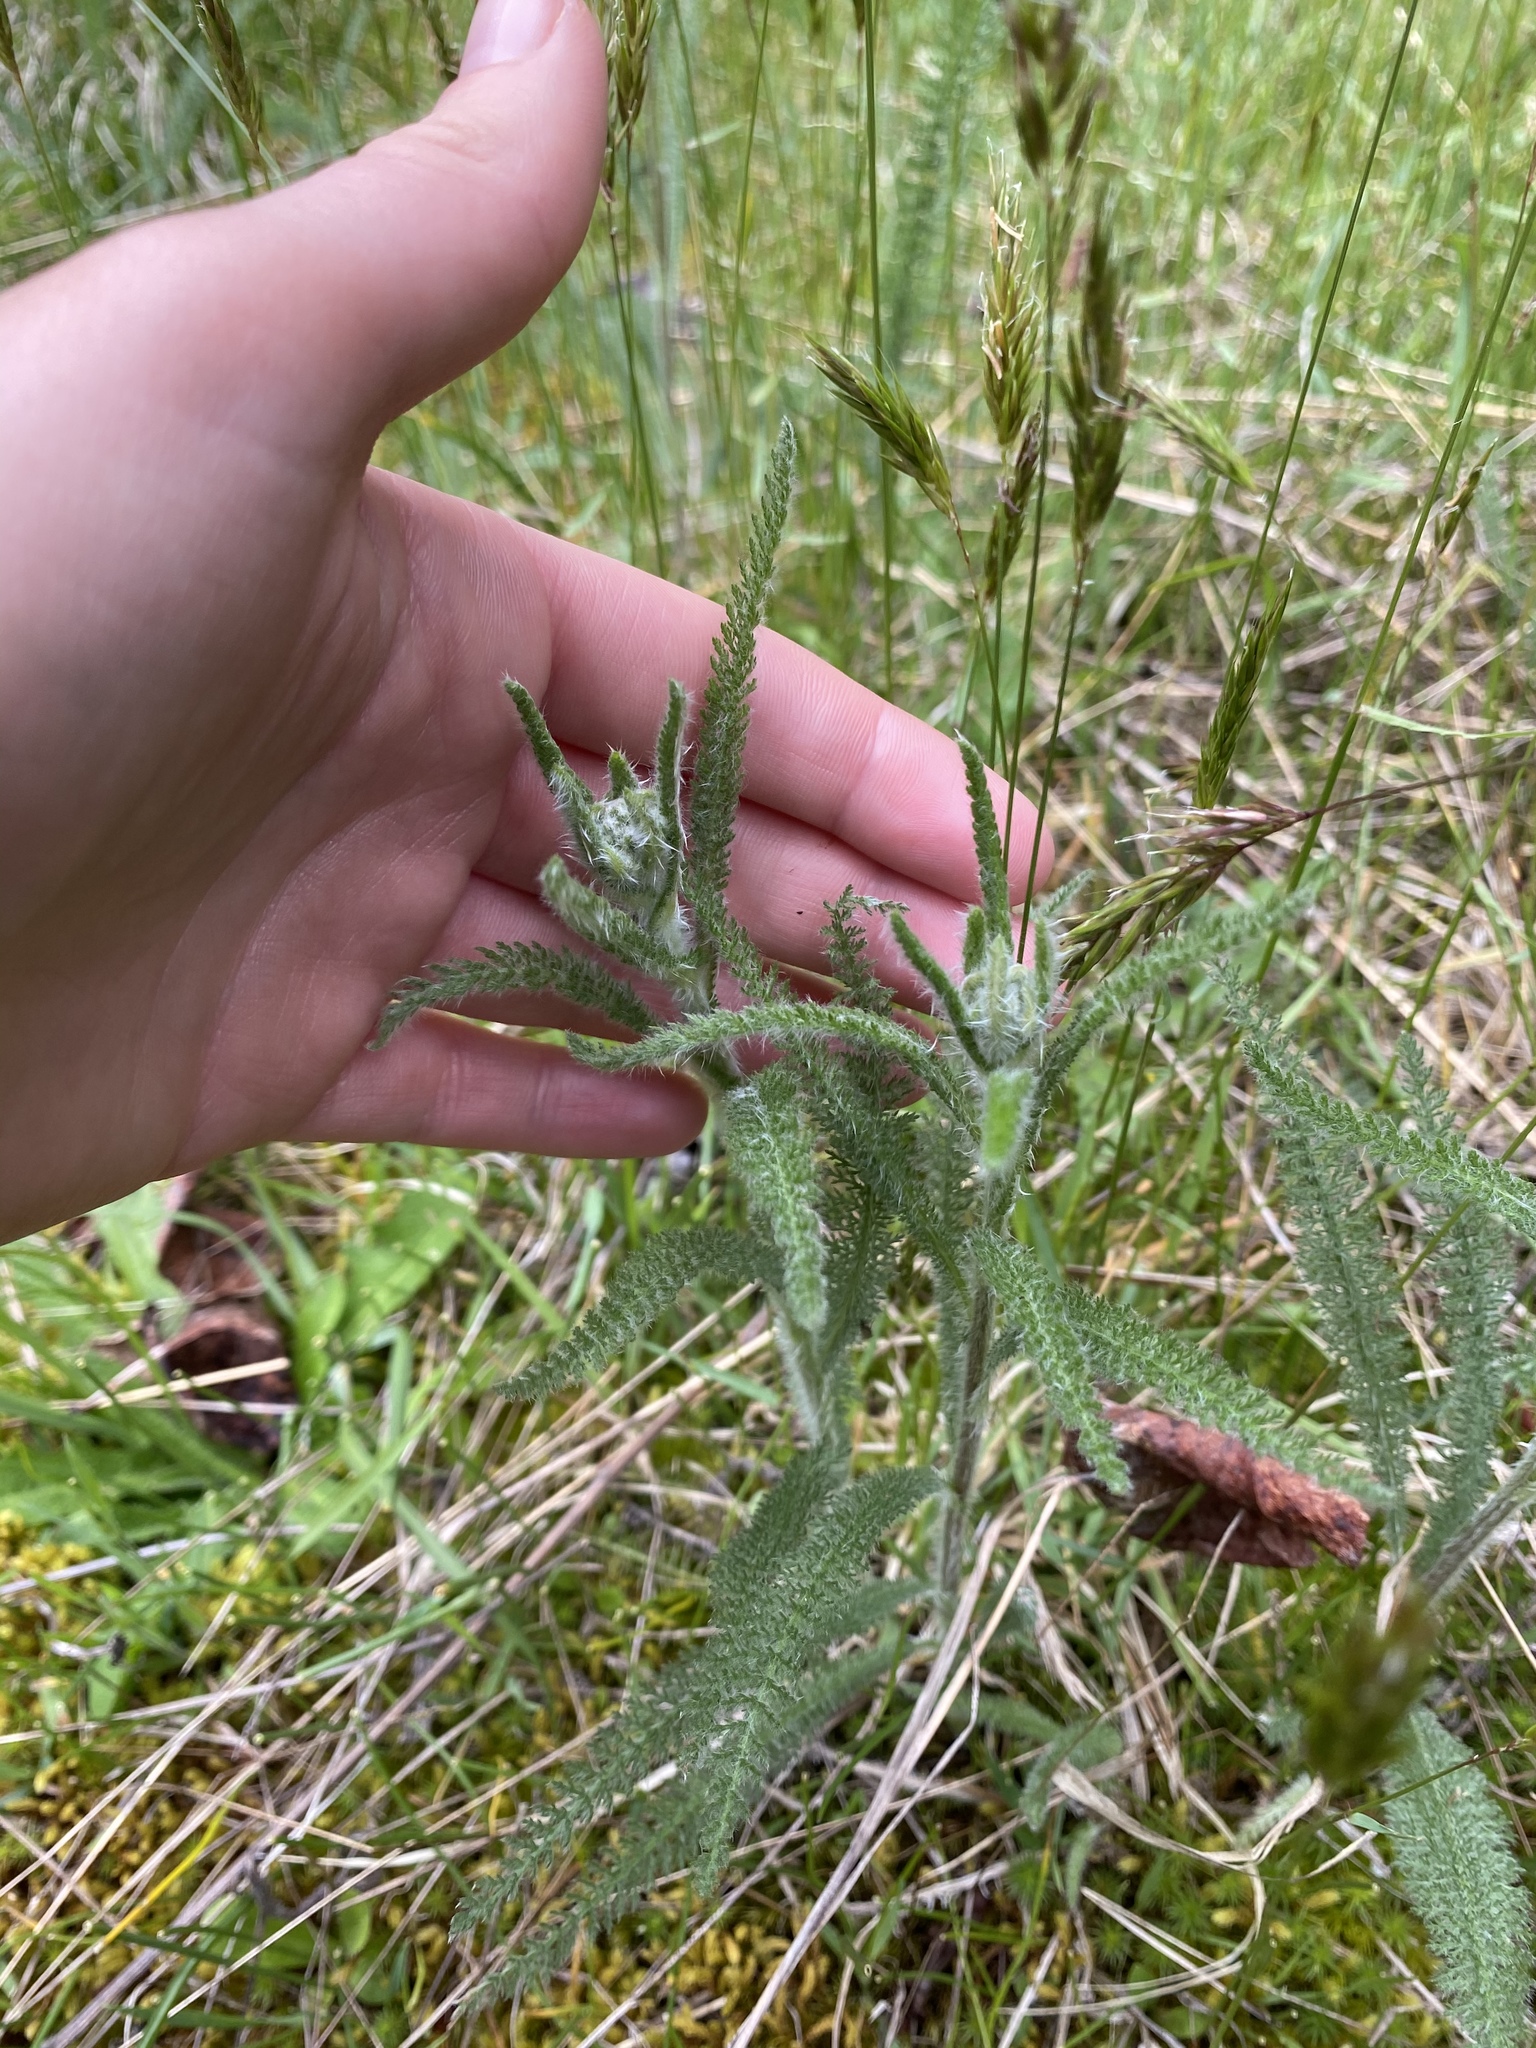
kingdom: Plantae
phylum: Tracheophyta
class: Magnoliopsida
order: Asterales
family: Asteraceae
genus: Achillea
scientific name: Achillea millefolium
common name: Yarrow
